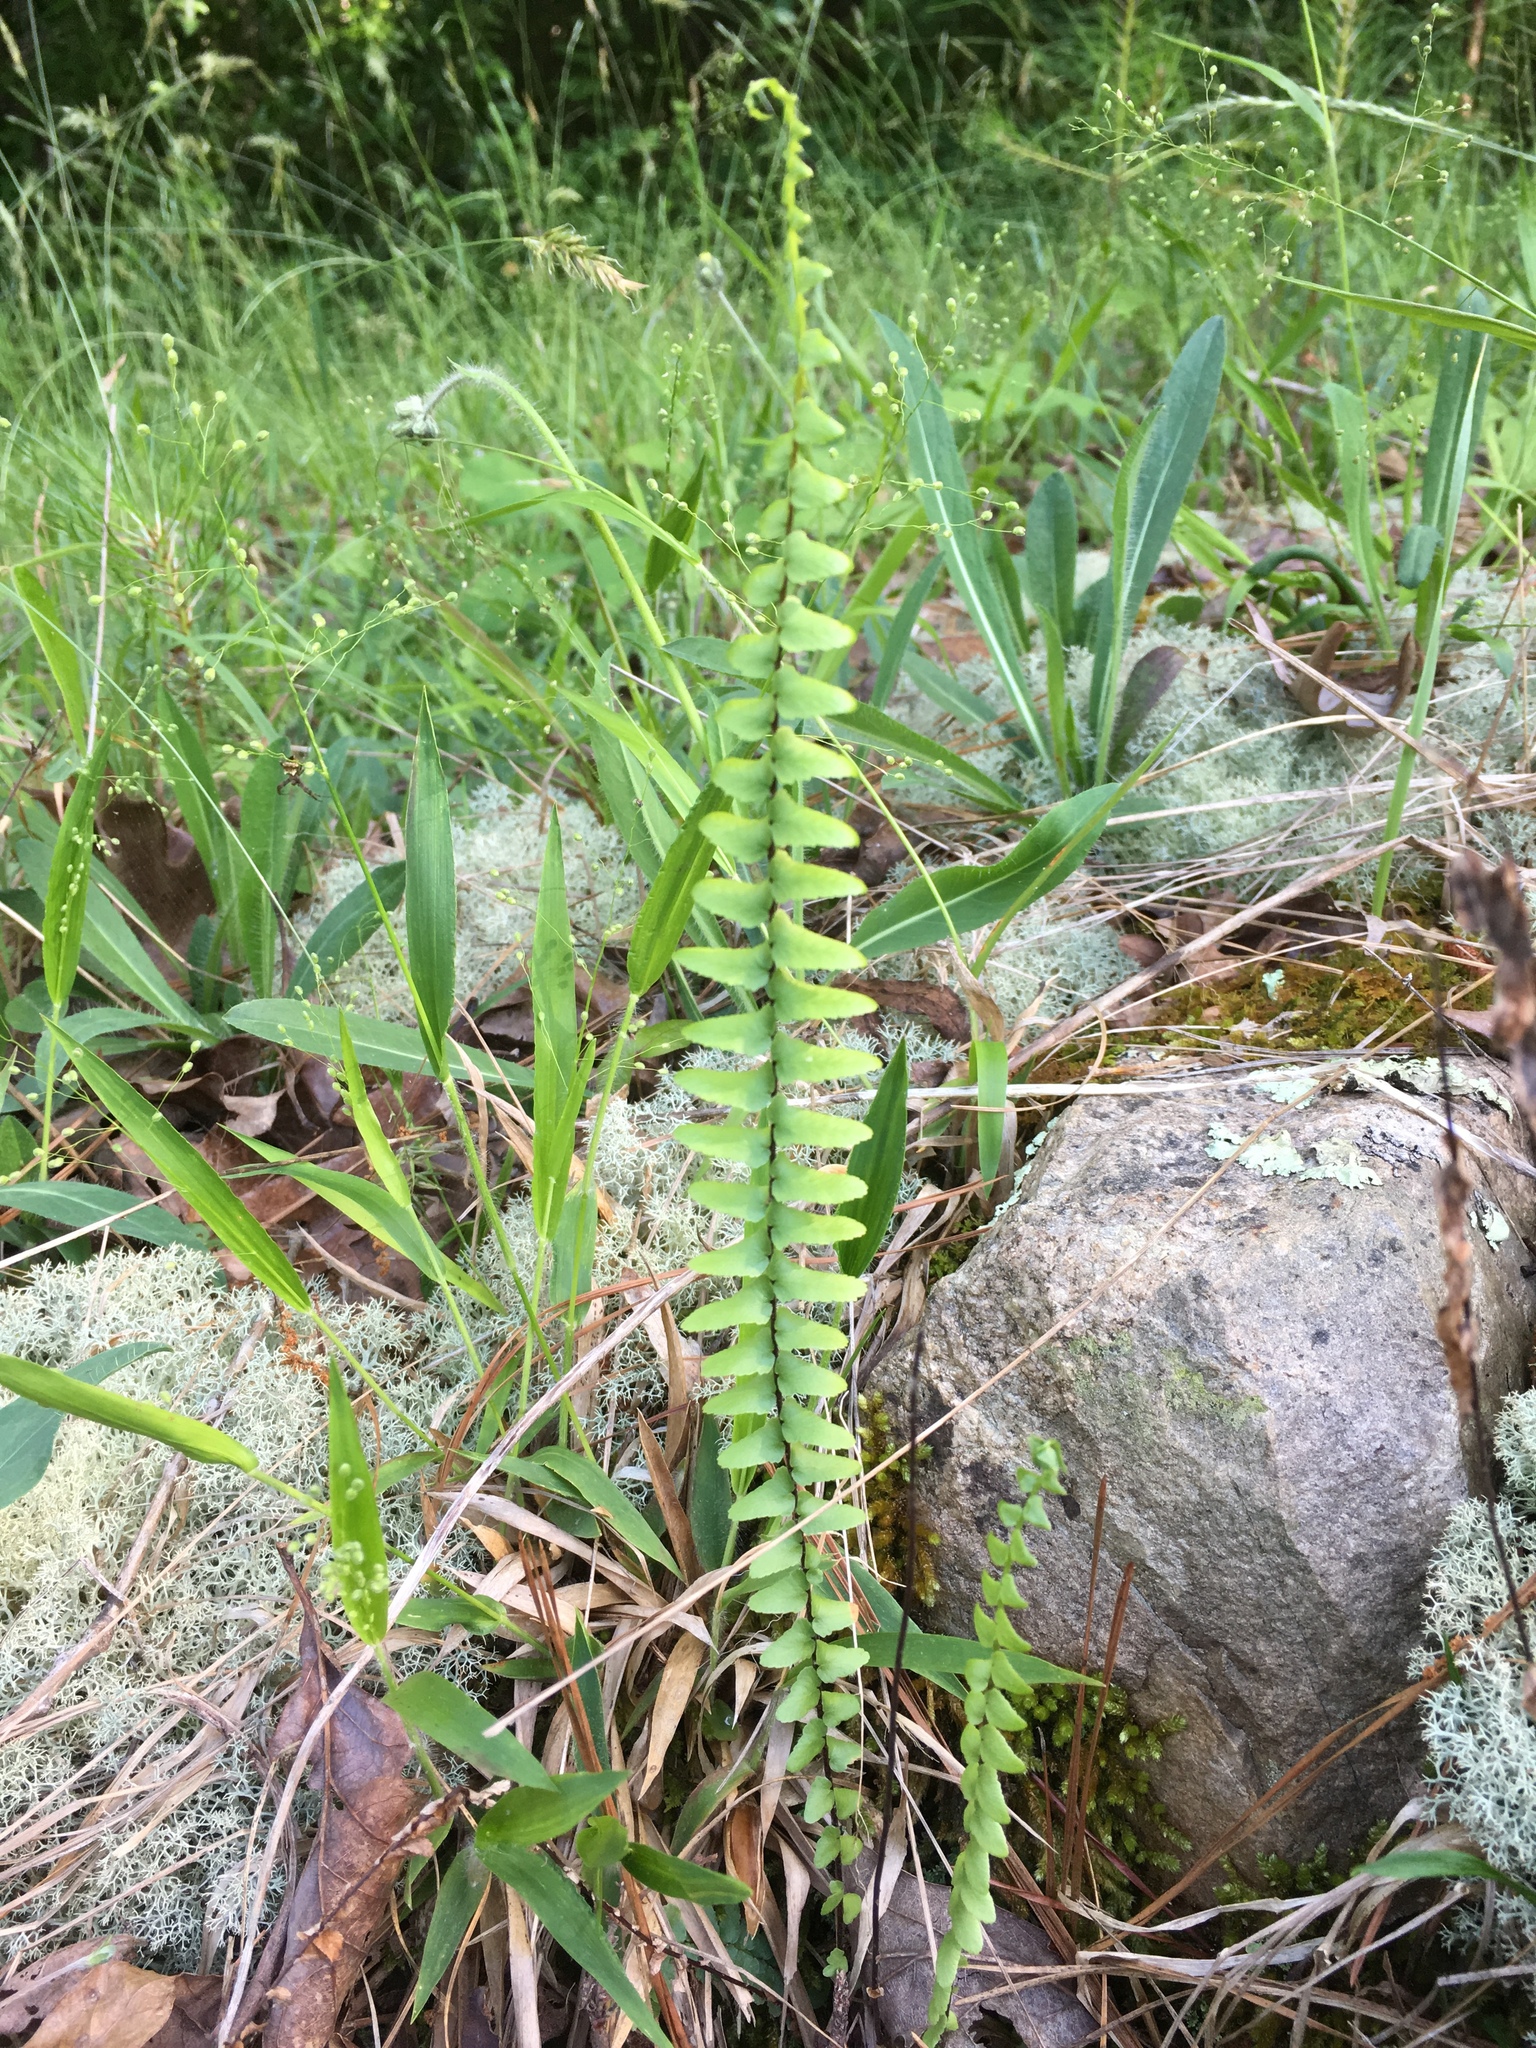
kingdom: Plantae
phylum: Tracheophyta
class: Polypodiopsida
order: Polypodiales
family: Aspleniaceae
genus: Asplenium
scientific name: Asplenium platyneuron
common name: Ebony spleenwort
